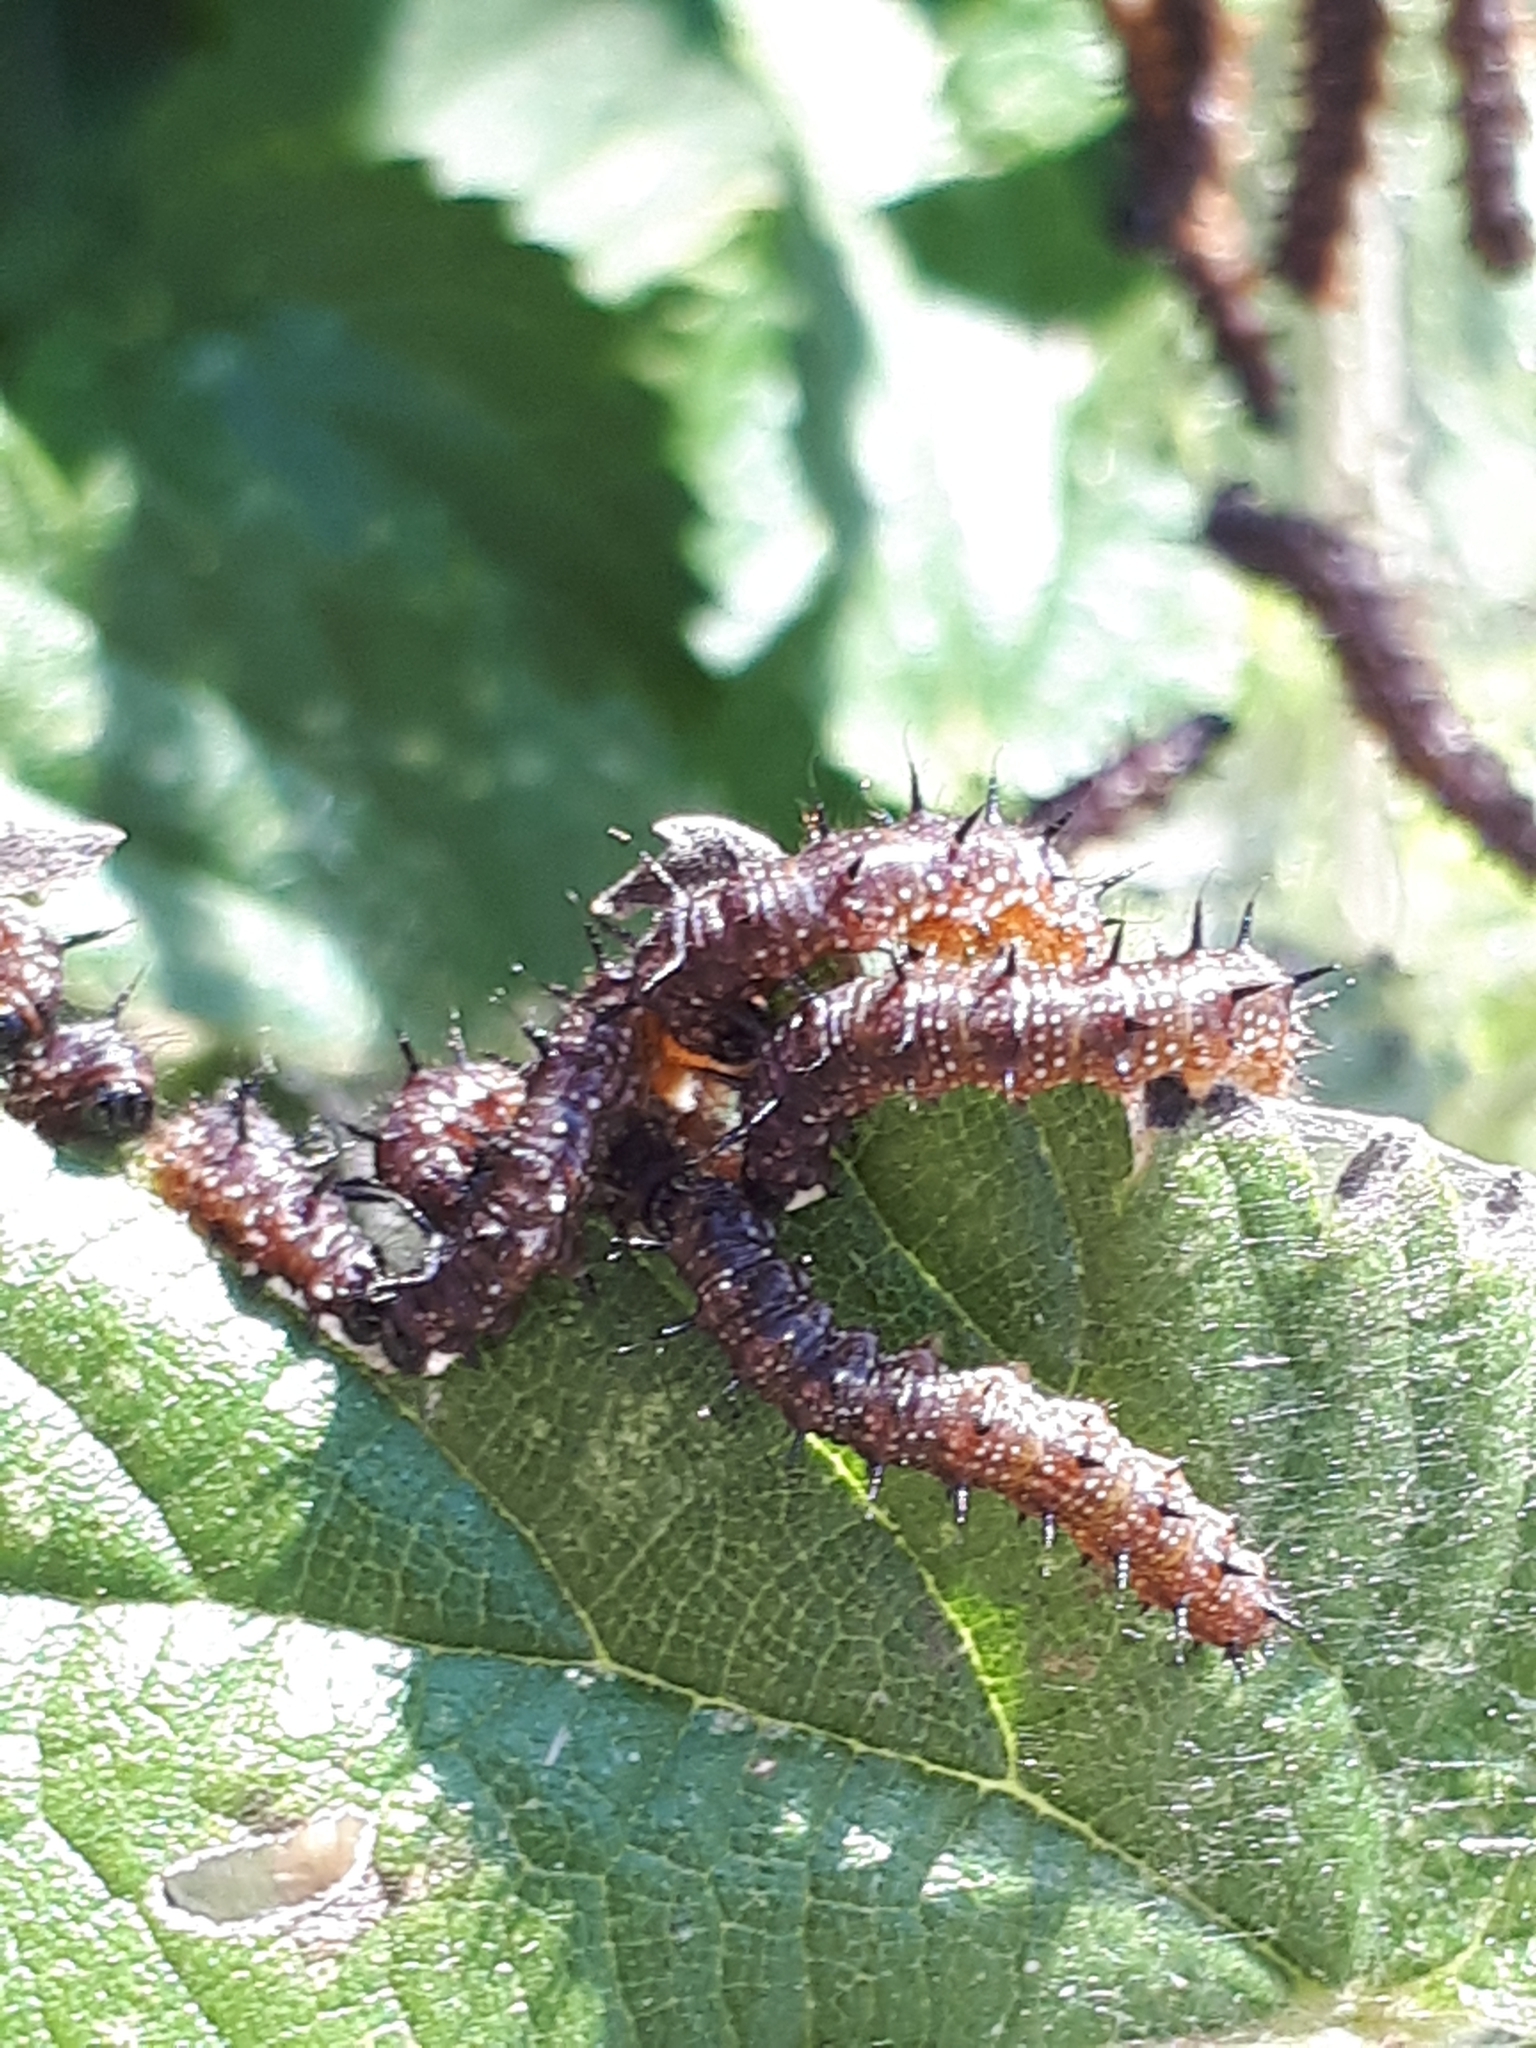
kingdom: Animalia
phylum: Arthropoda
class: Insecta
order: Lepidoptera
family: Nymphalidae
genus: Aglais
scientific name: Aglais io
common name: Peacock
